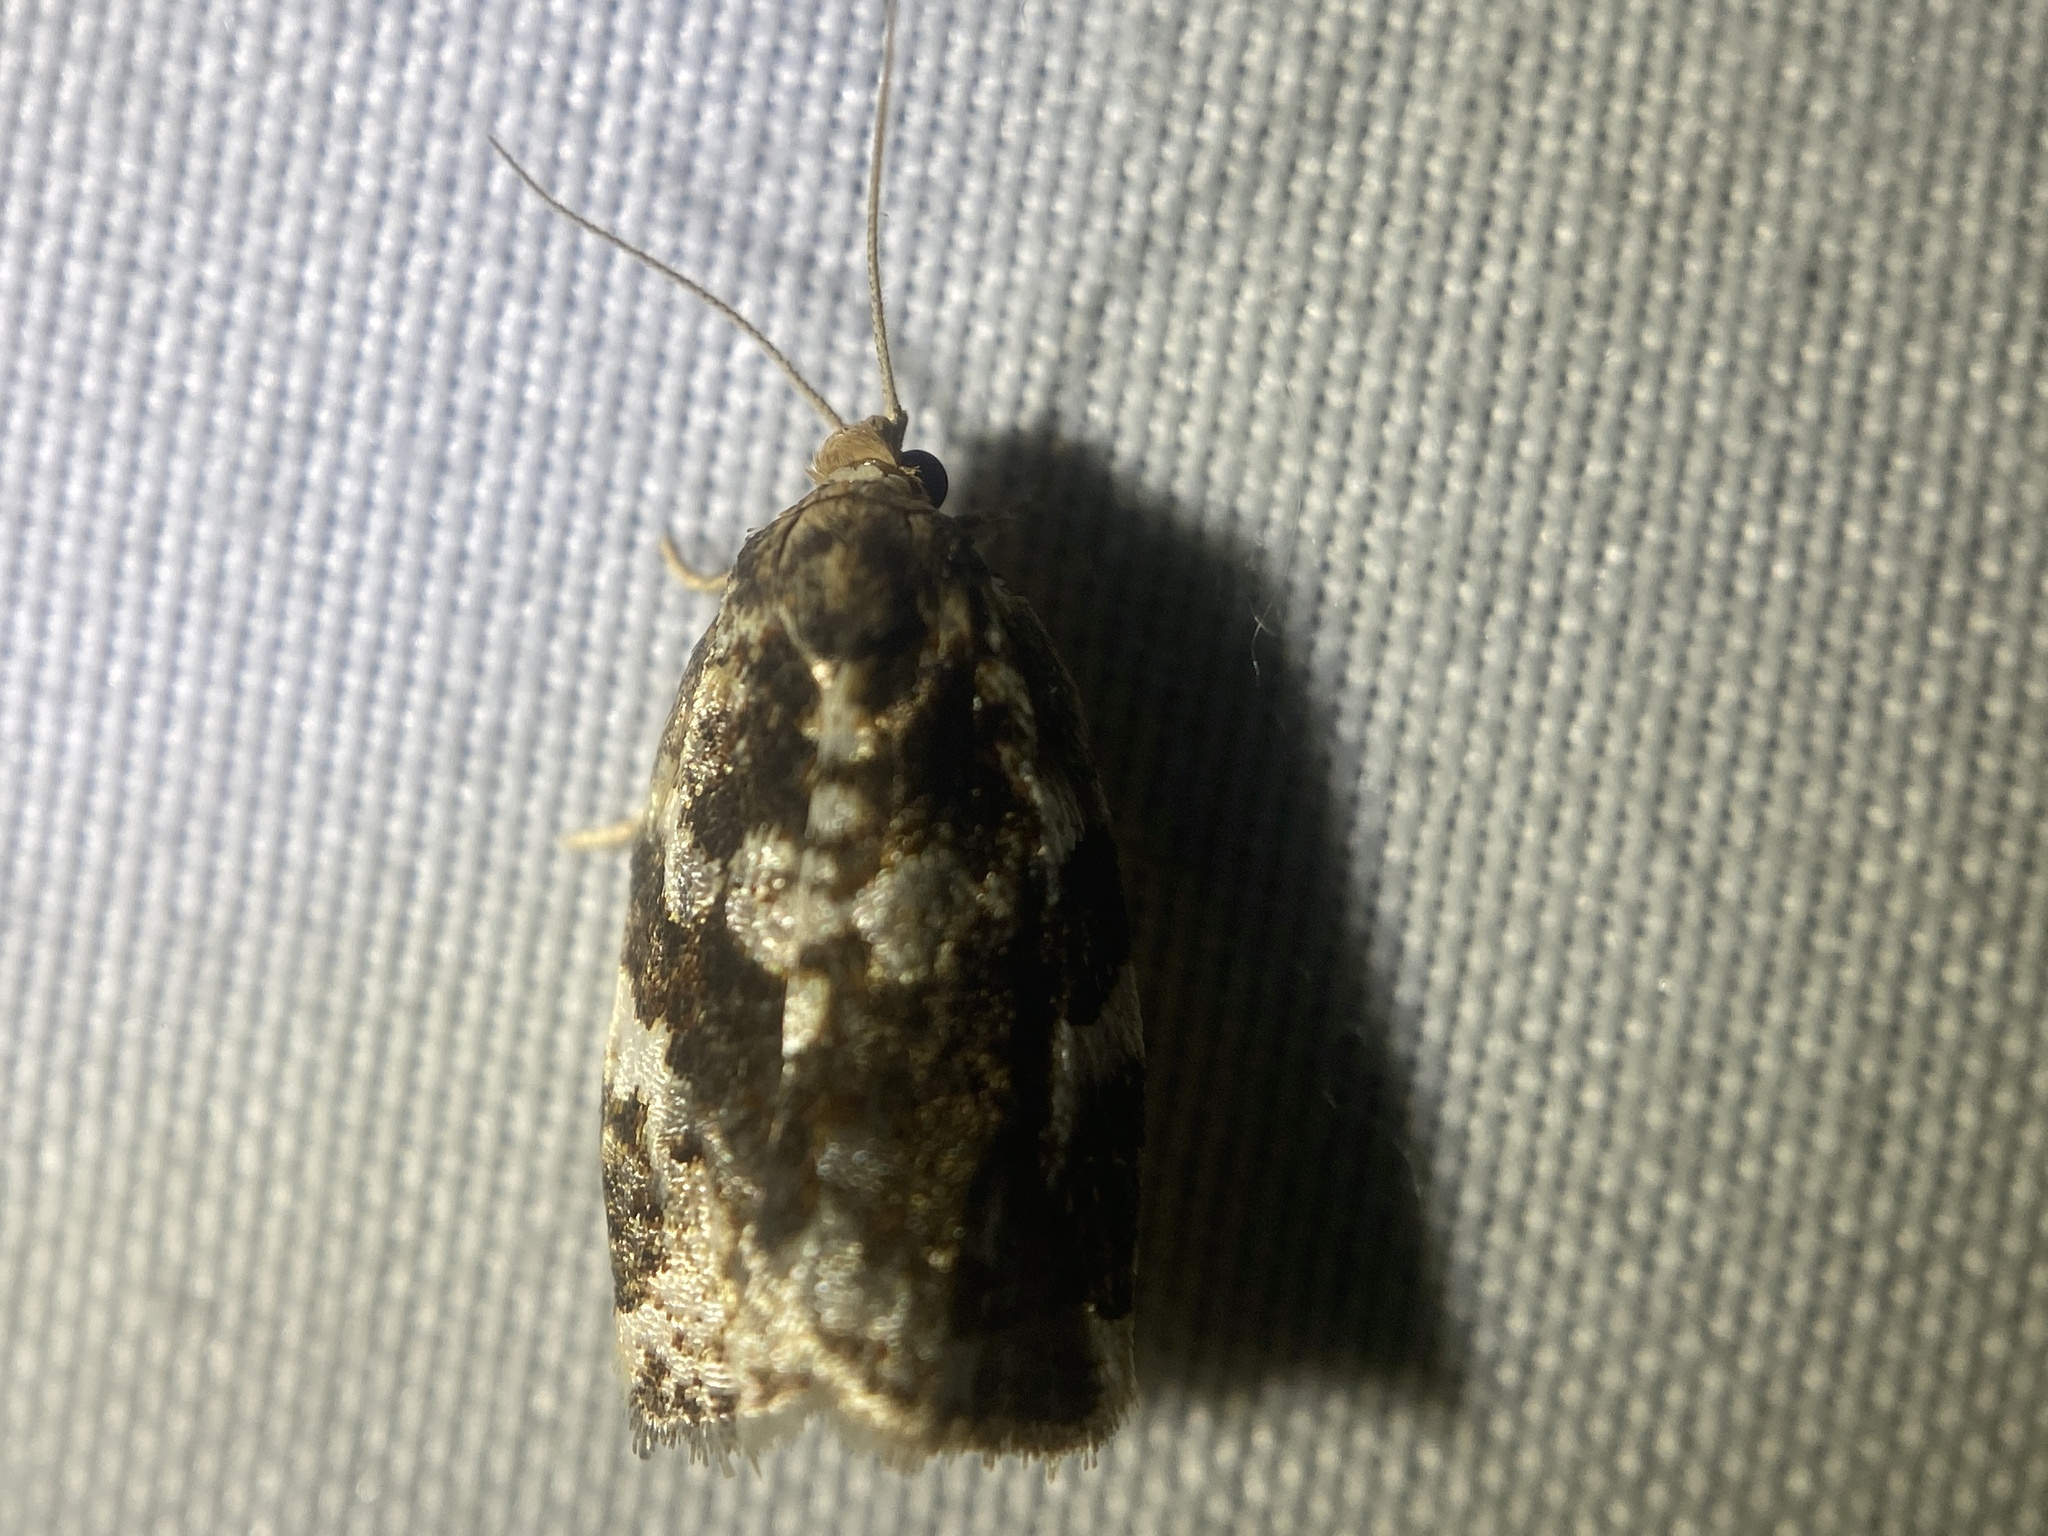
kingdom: Animalia
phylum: Arthropoda
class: Insecta
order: Lepidoptera
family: Tortricidae
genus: Archips
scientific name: Archips mortuana
